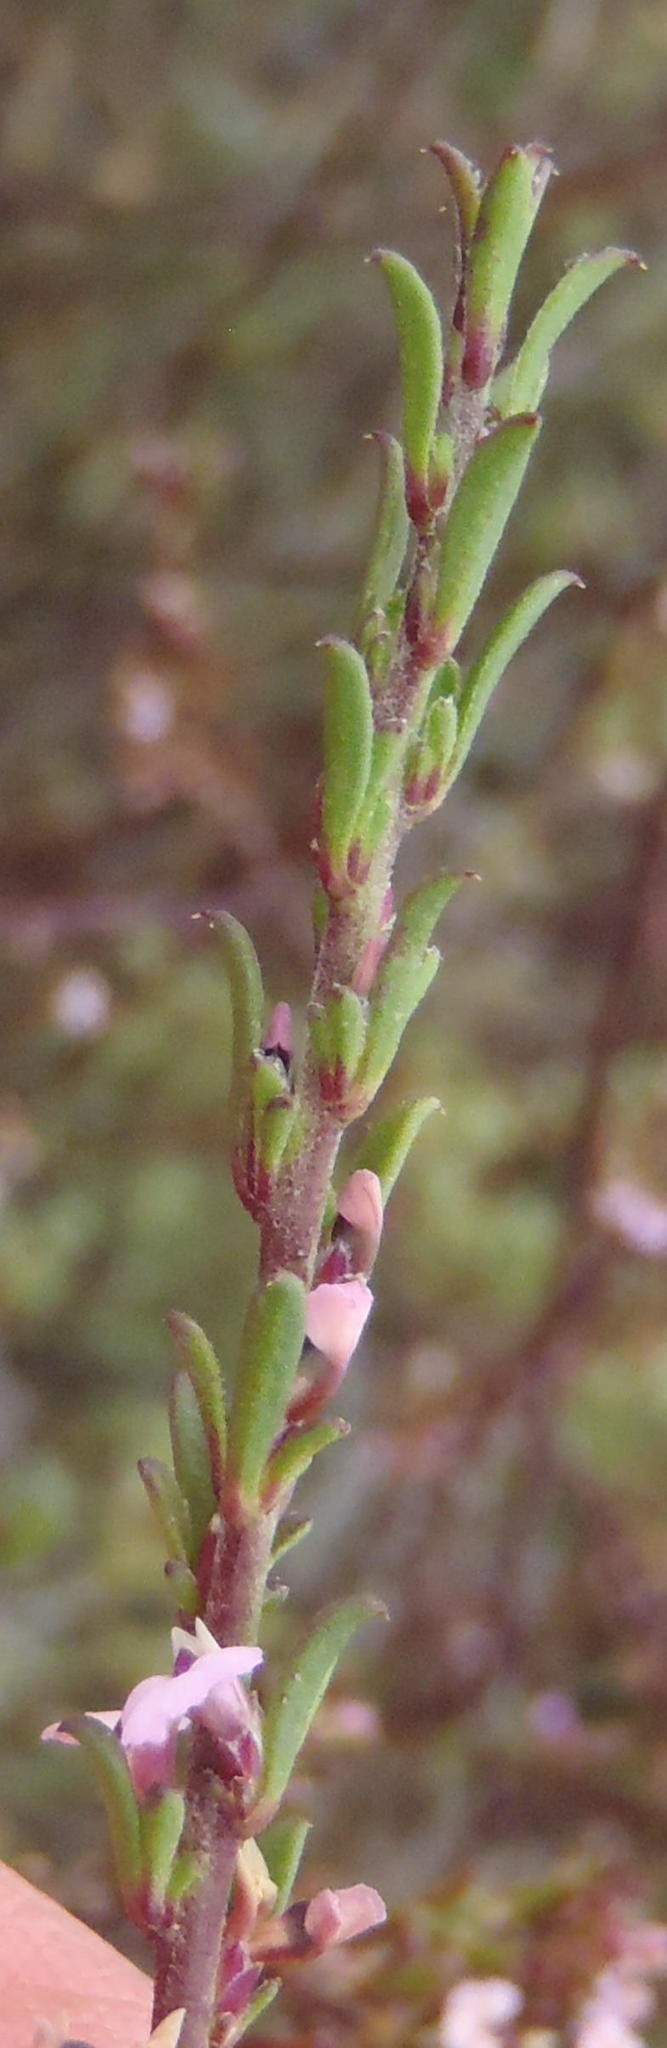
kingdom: Plantae
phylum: Tracheophyta
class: Magnoliopsida
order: Fabales
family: Polygalaceae
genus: Muraltia
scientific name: Muraltia dispersa
